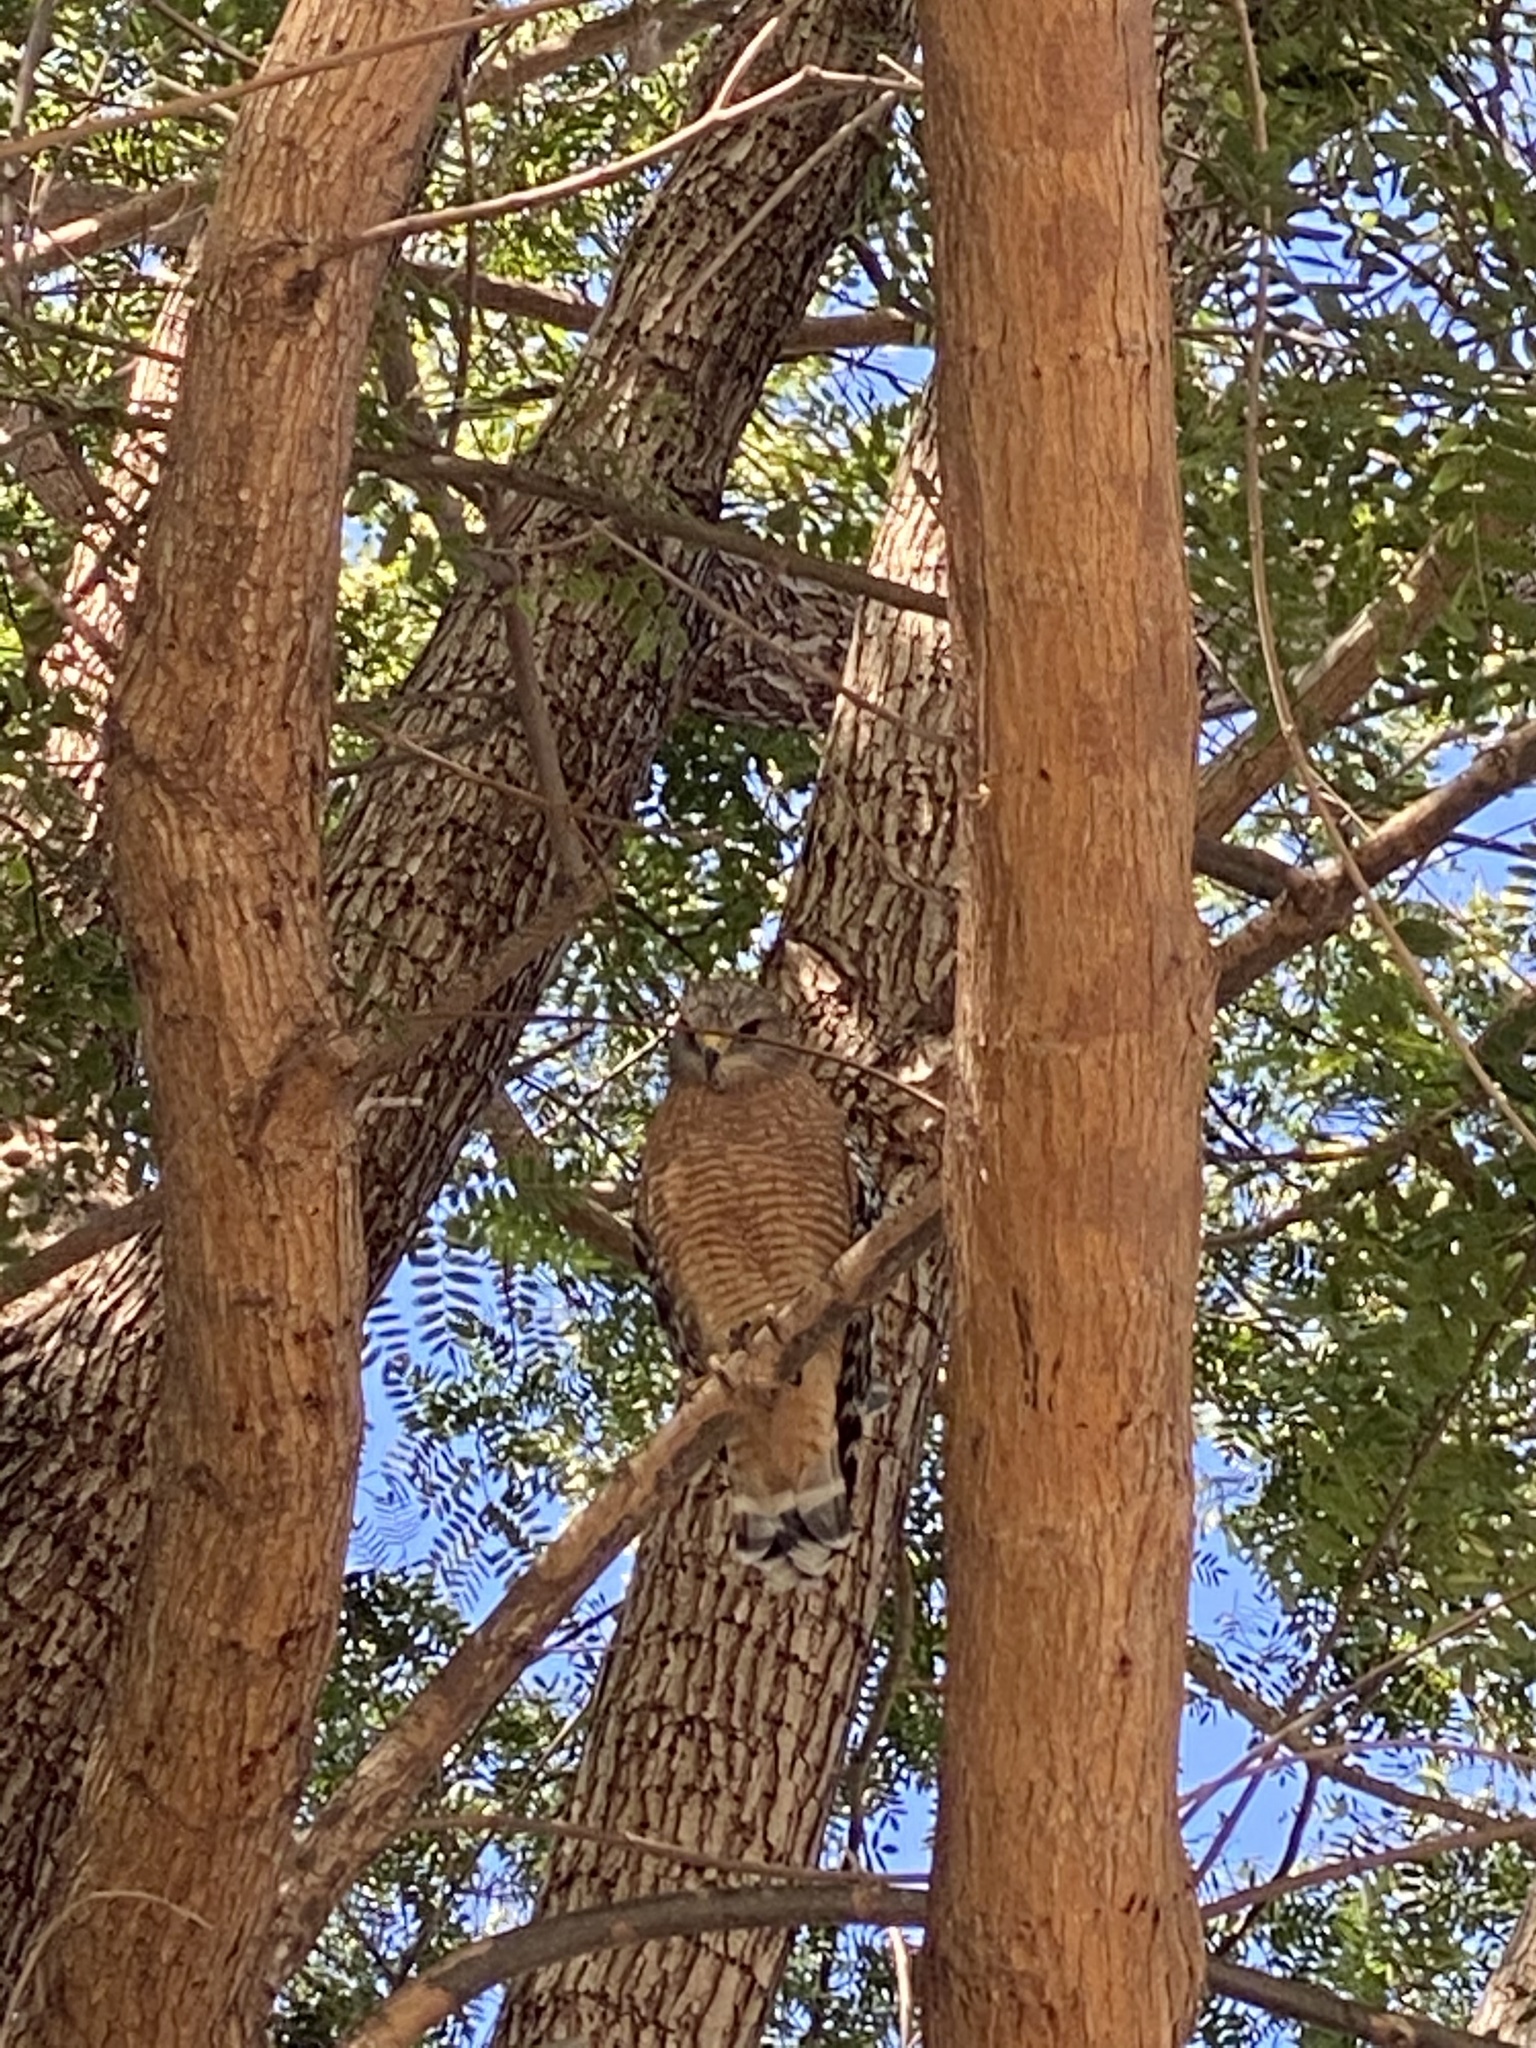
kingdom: Animalia
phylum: Chordata
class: Aves
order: Accipitriformes
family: Accipitridae
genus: Buteo
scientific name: Buteo lineatus
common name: Red-shouldered hawk
